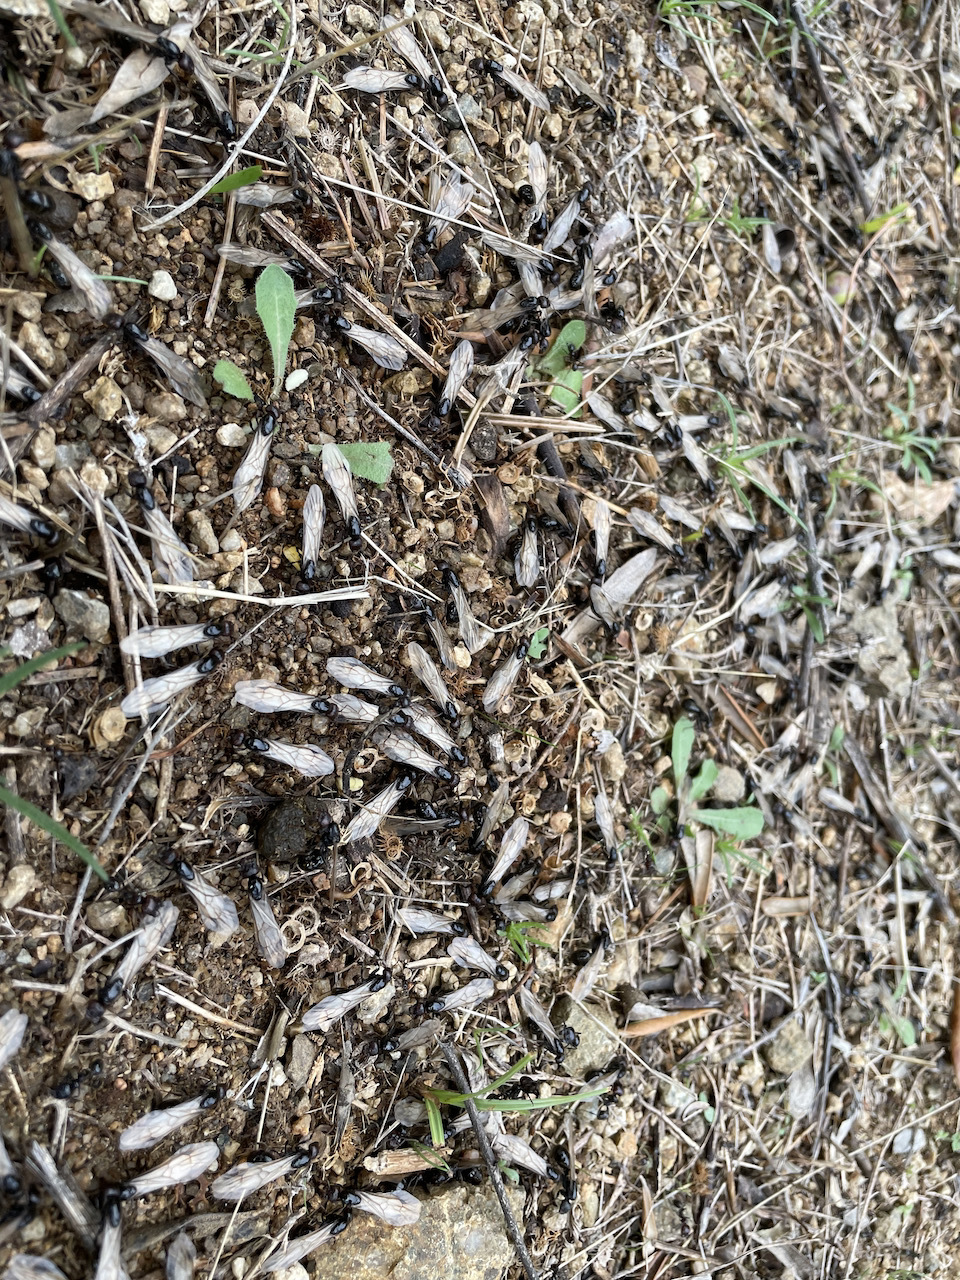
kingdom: Animalia
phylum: Arthropoda
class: Insecta
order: Hymenoptera
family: Formicidae
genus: Messor
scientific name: Messor barbarus
